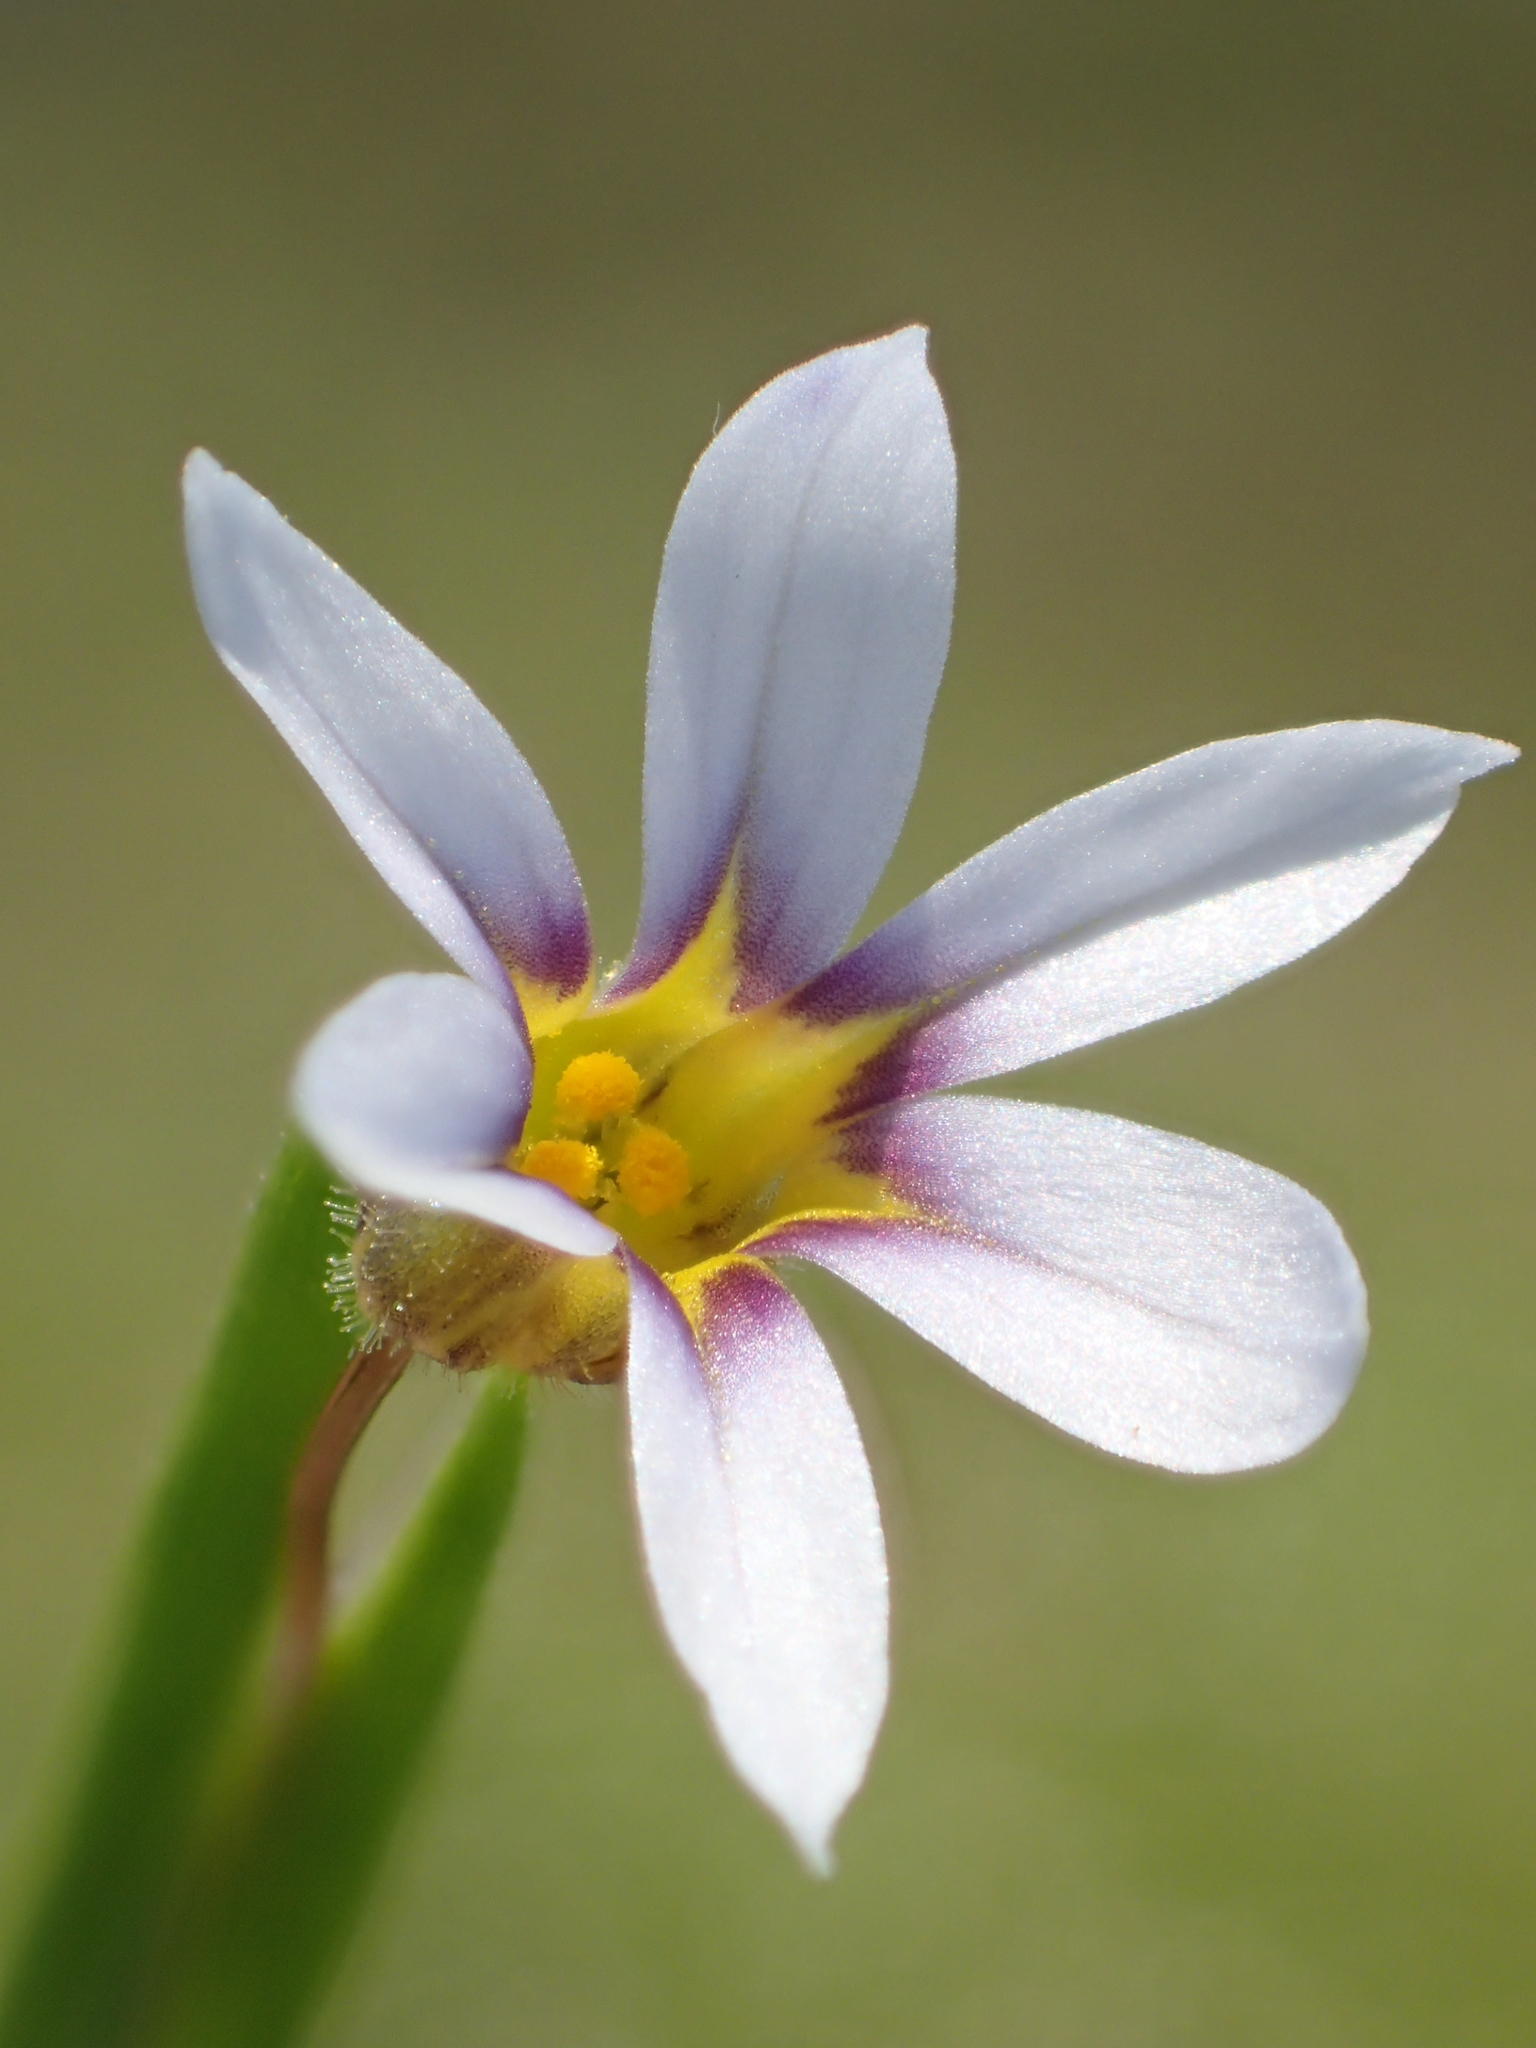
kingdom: Plantae
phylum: Tracheophyta
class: Liliopsida
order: Asparagales
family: Iridaceae
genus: Sisyrinchium
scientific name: Sisyrinchium micranthum
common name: Bermuda pigroot
